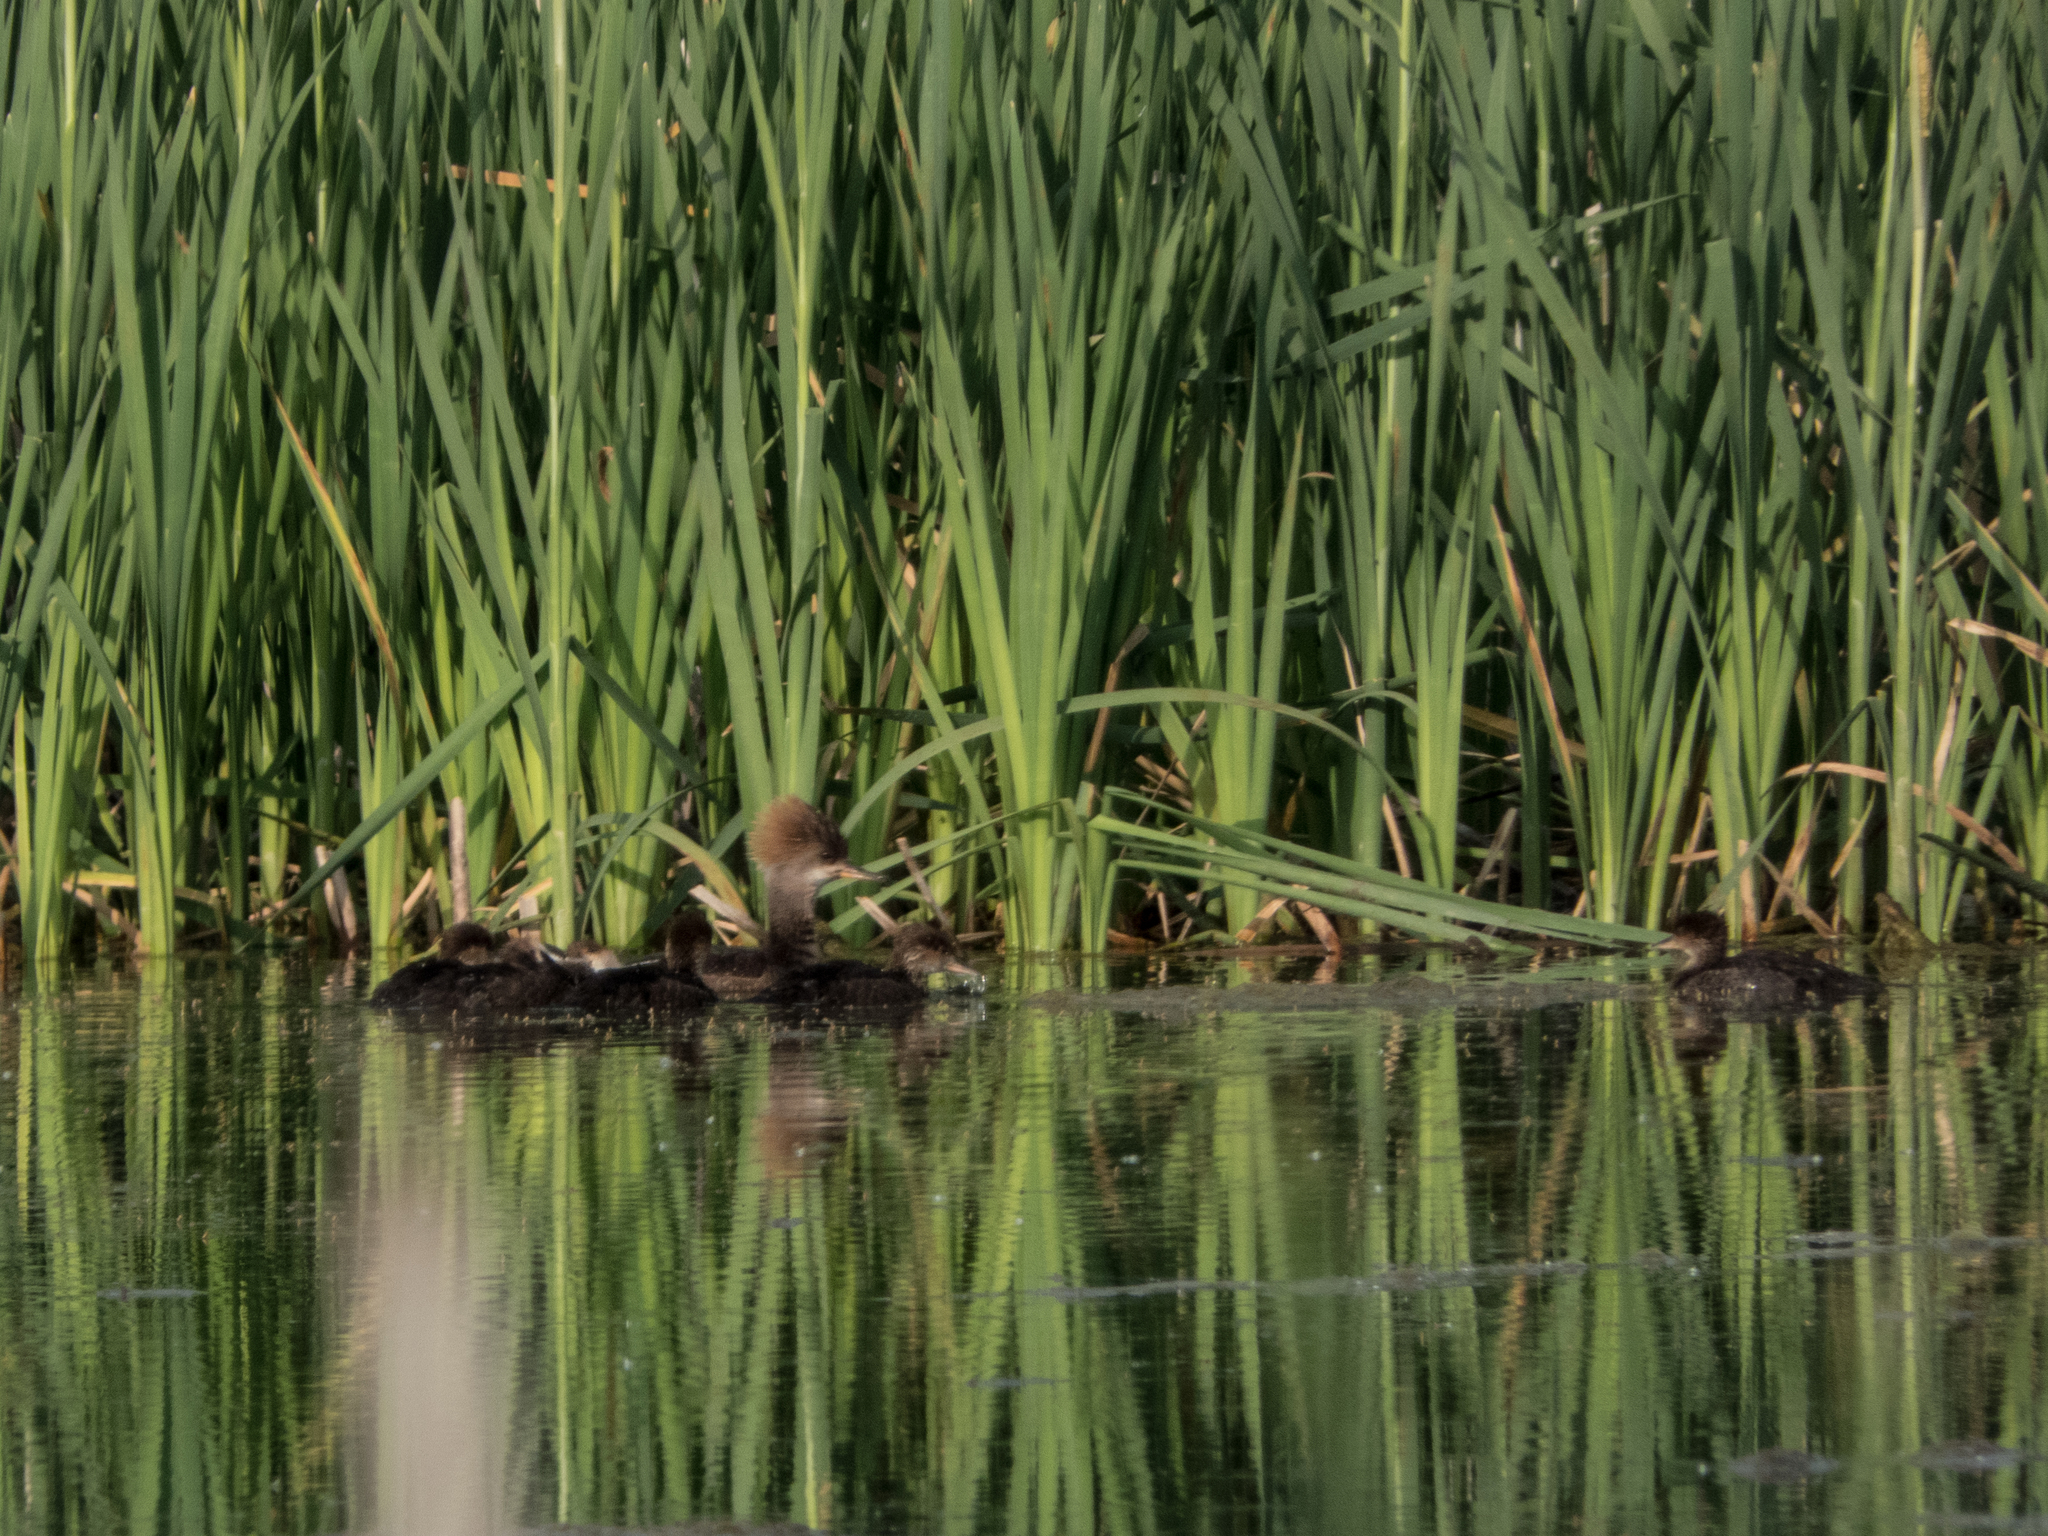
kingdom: Animalia
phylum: Chordata
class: Aves
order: Anseriformes
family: Anatidae
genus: Lophodytes
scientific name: Lophodytes cucullatus
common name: Hooded merganser
